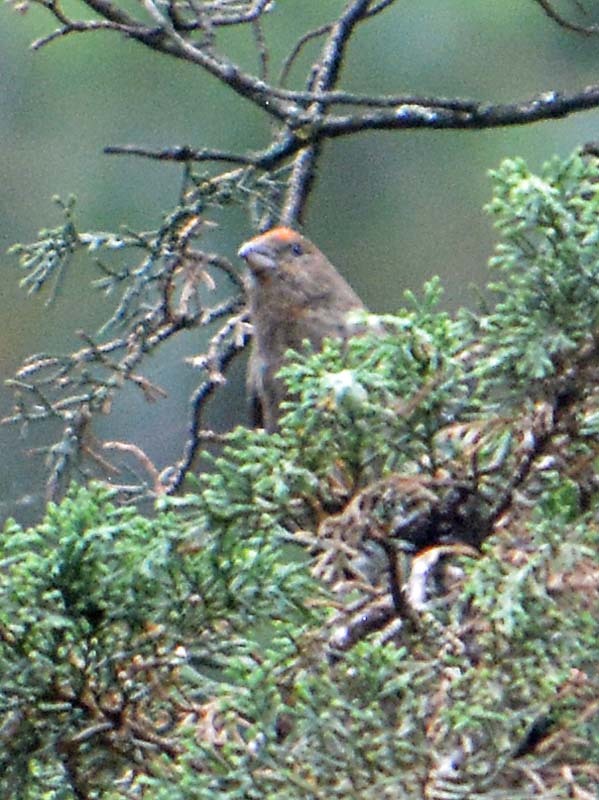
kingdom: Animalia
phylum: Chordata
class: Aves
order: Passeriformes
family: Fringillidae
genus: Loxia
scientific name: Loxia curvirostra
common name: Red crossbill
